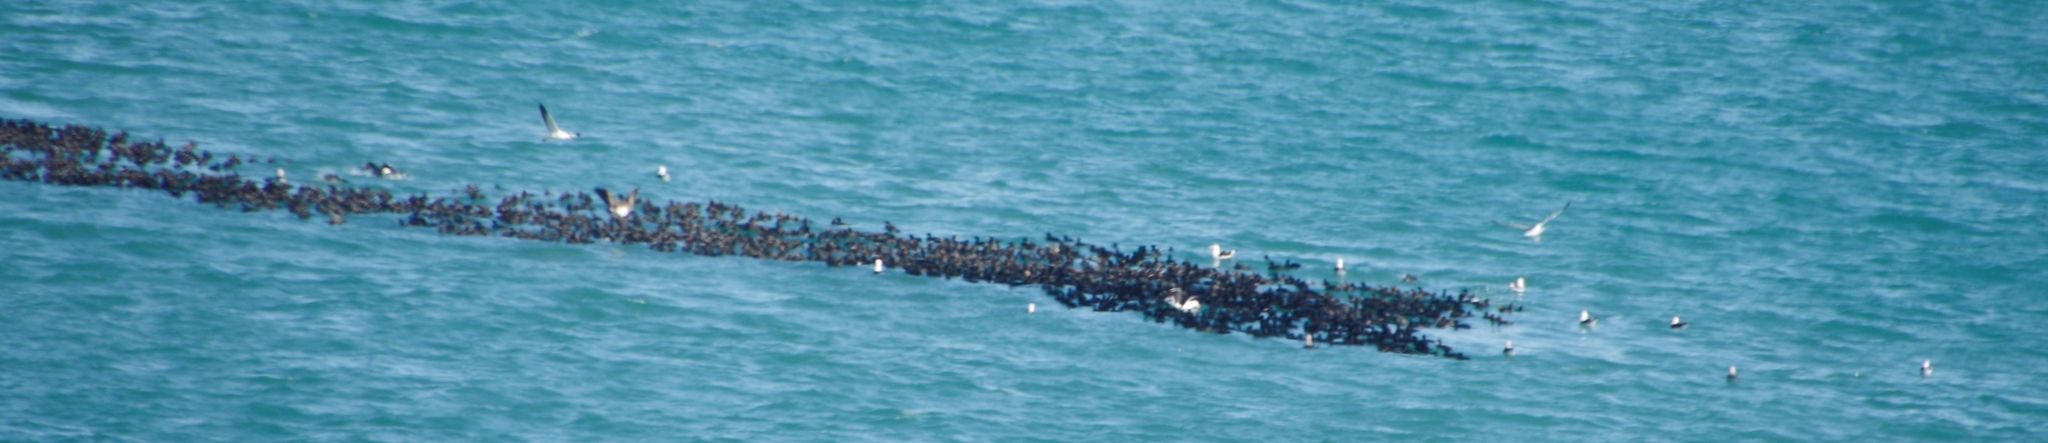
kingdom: Animalia
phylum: Chordata
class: Aves
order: Suliformes
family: Phalacrocoracidae
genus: Phalacrocorax
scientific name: Phalacrocorax capensis
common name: Cape cormorant
